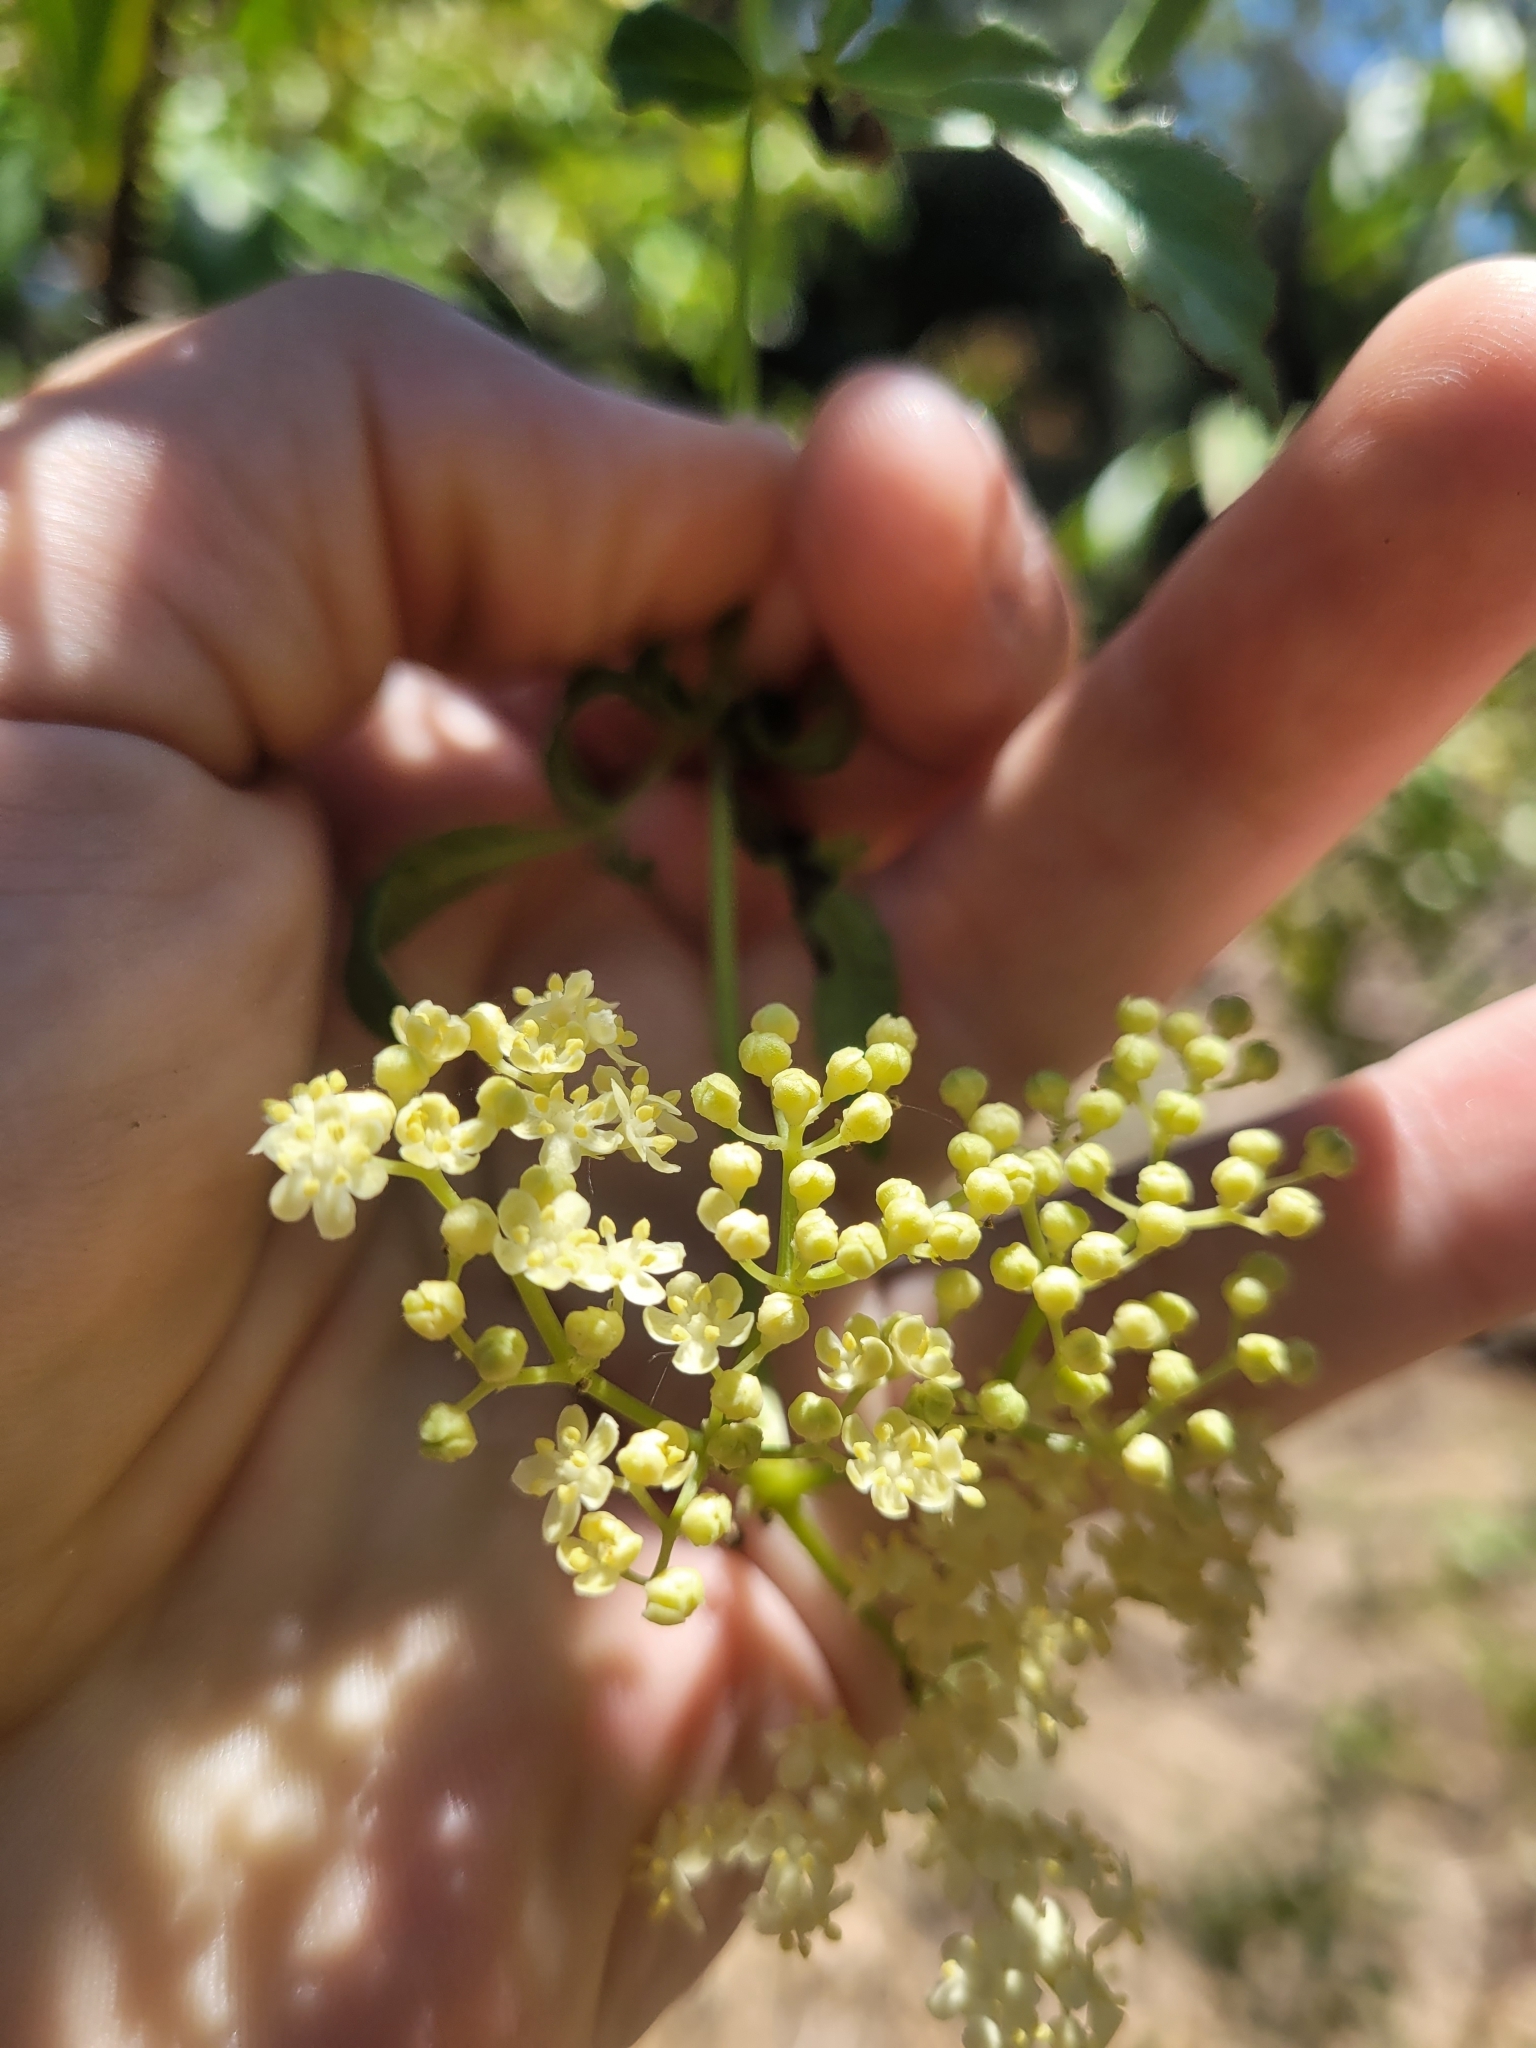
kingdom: Plantae
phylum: Tracheophyta
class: Magnoliopsida
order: Dipsacales
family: Viburnaceae
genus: Sambucus
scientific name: Sambucus cerulea
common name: Blue elder
